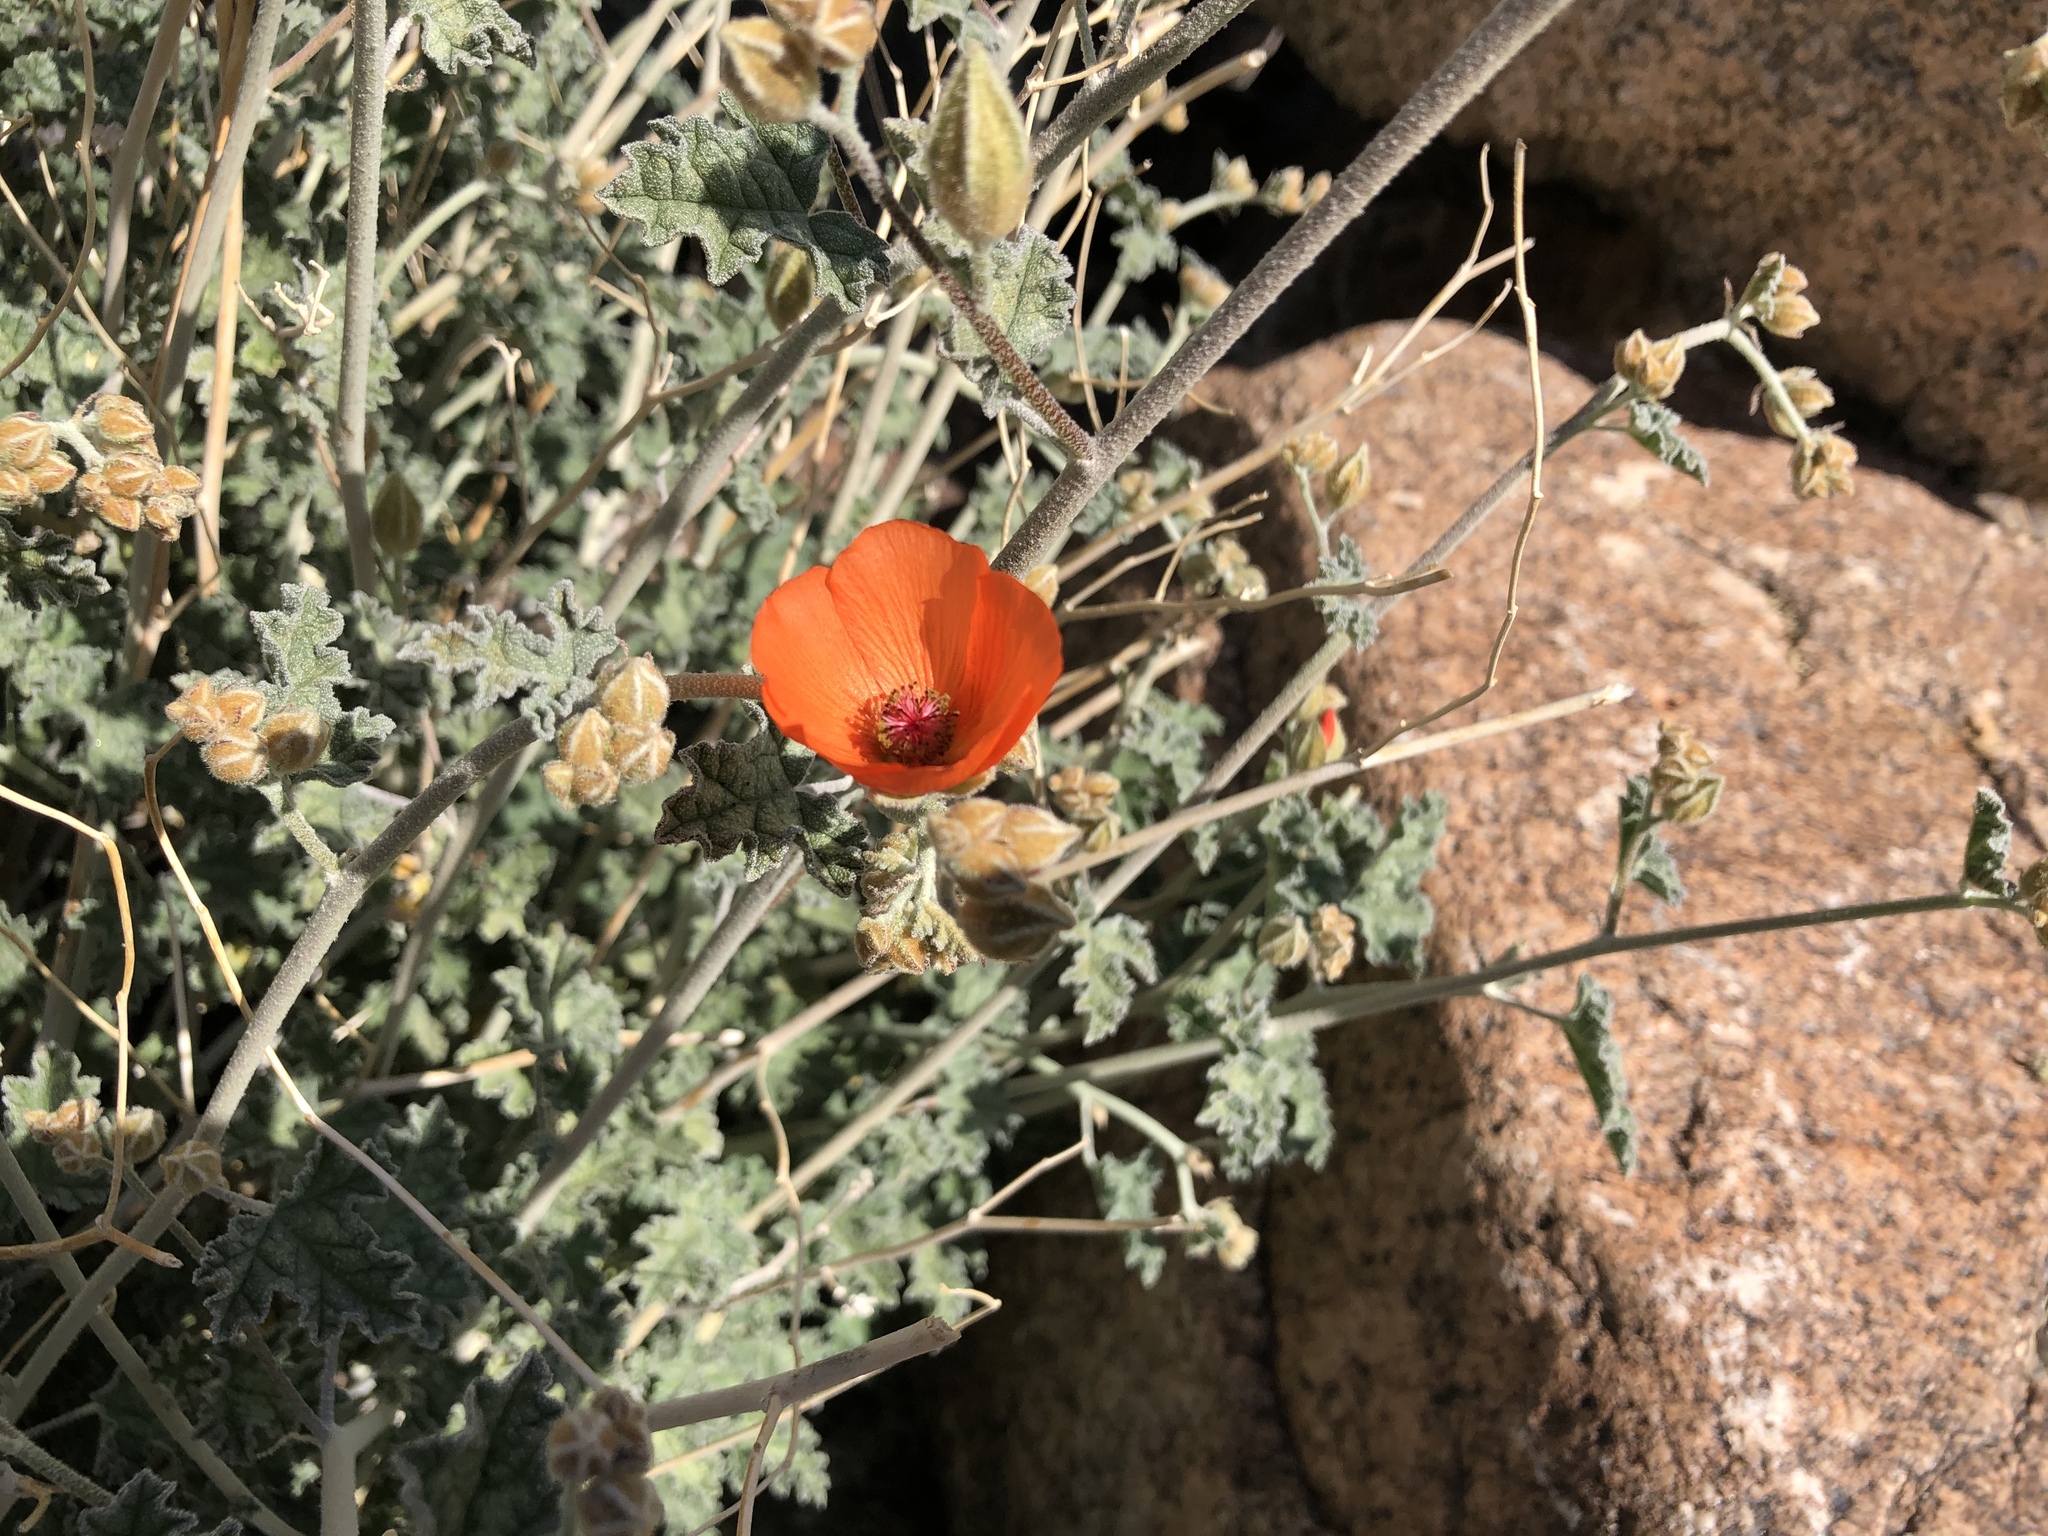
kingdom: Plantae
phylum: Tracheophyta
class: Magnoliopsida
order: Malvales
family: Malvaceae
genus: Sphaeralcea
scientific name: Sphaeralcea ambigua
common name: Apricot globe-mallow
